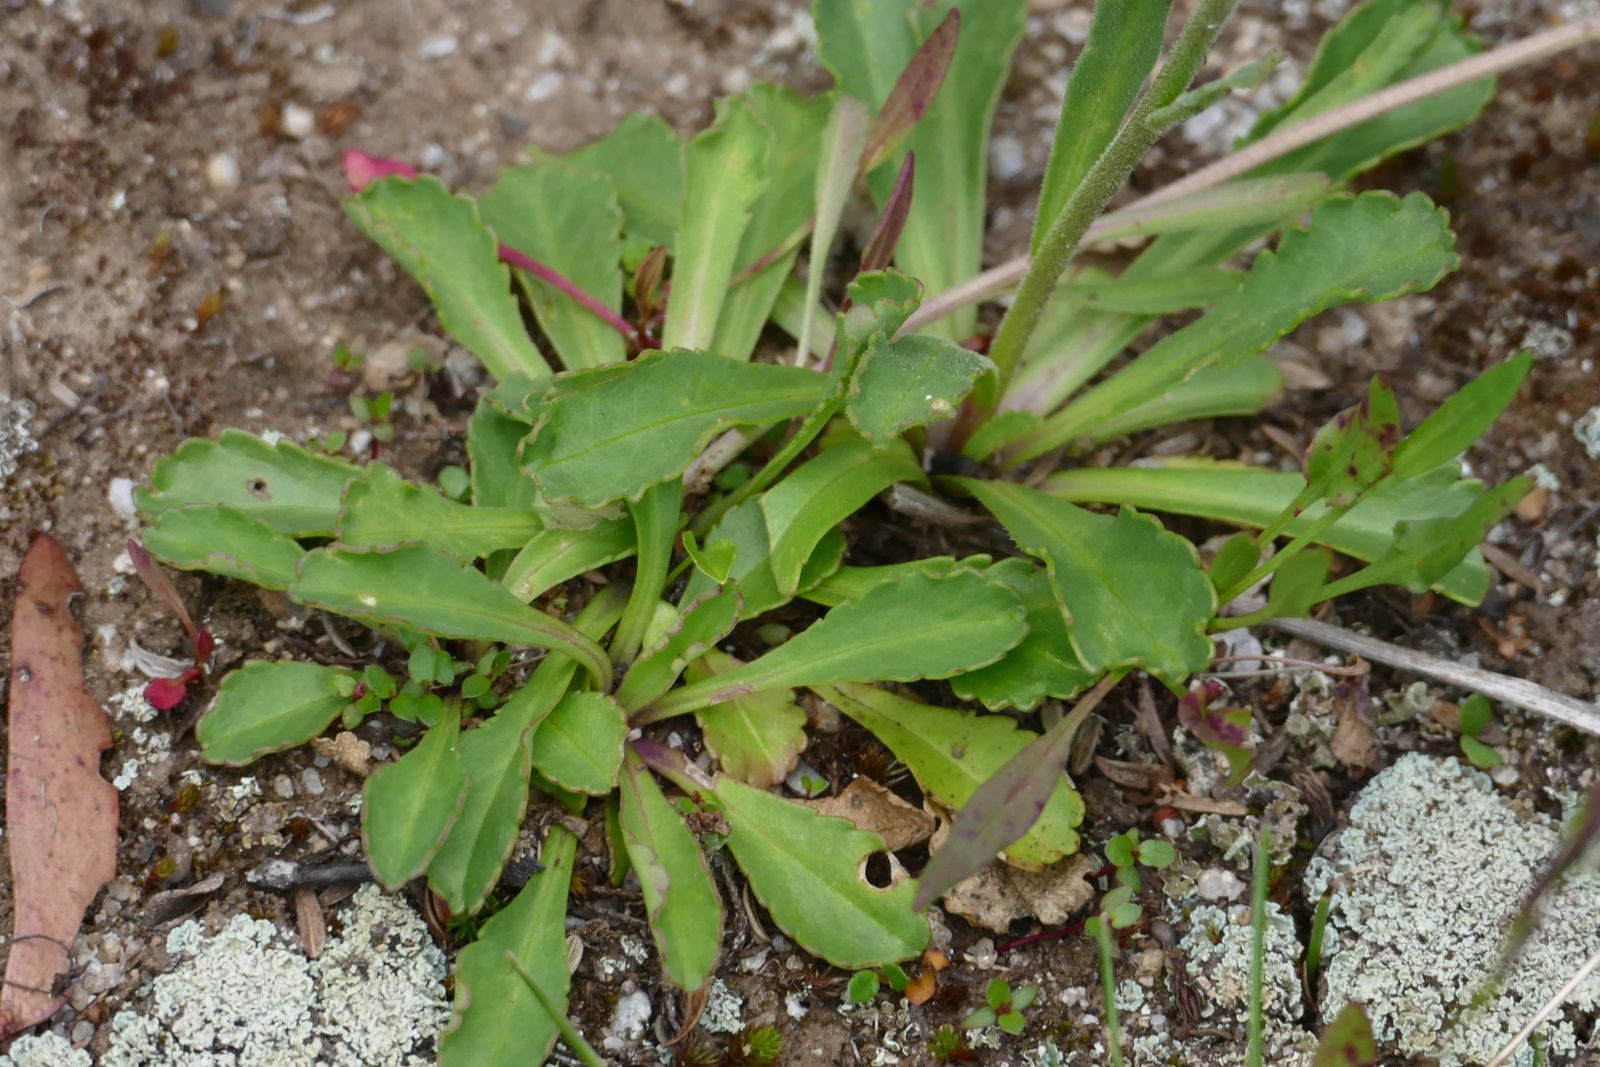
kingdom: Plantae
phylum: Tracheophyta
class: Magnoliopsida
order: Asterales
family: Asteraceae
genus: Brachyscome
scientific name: Brachyscome spathulata
